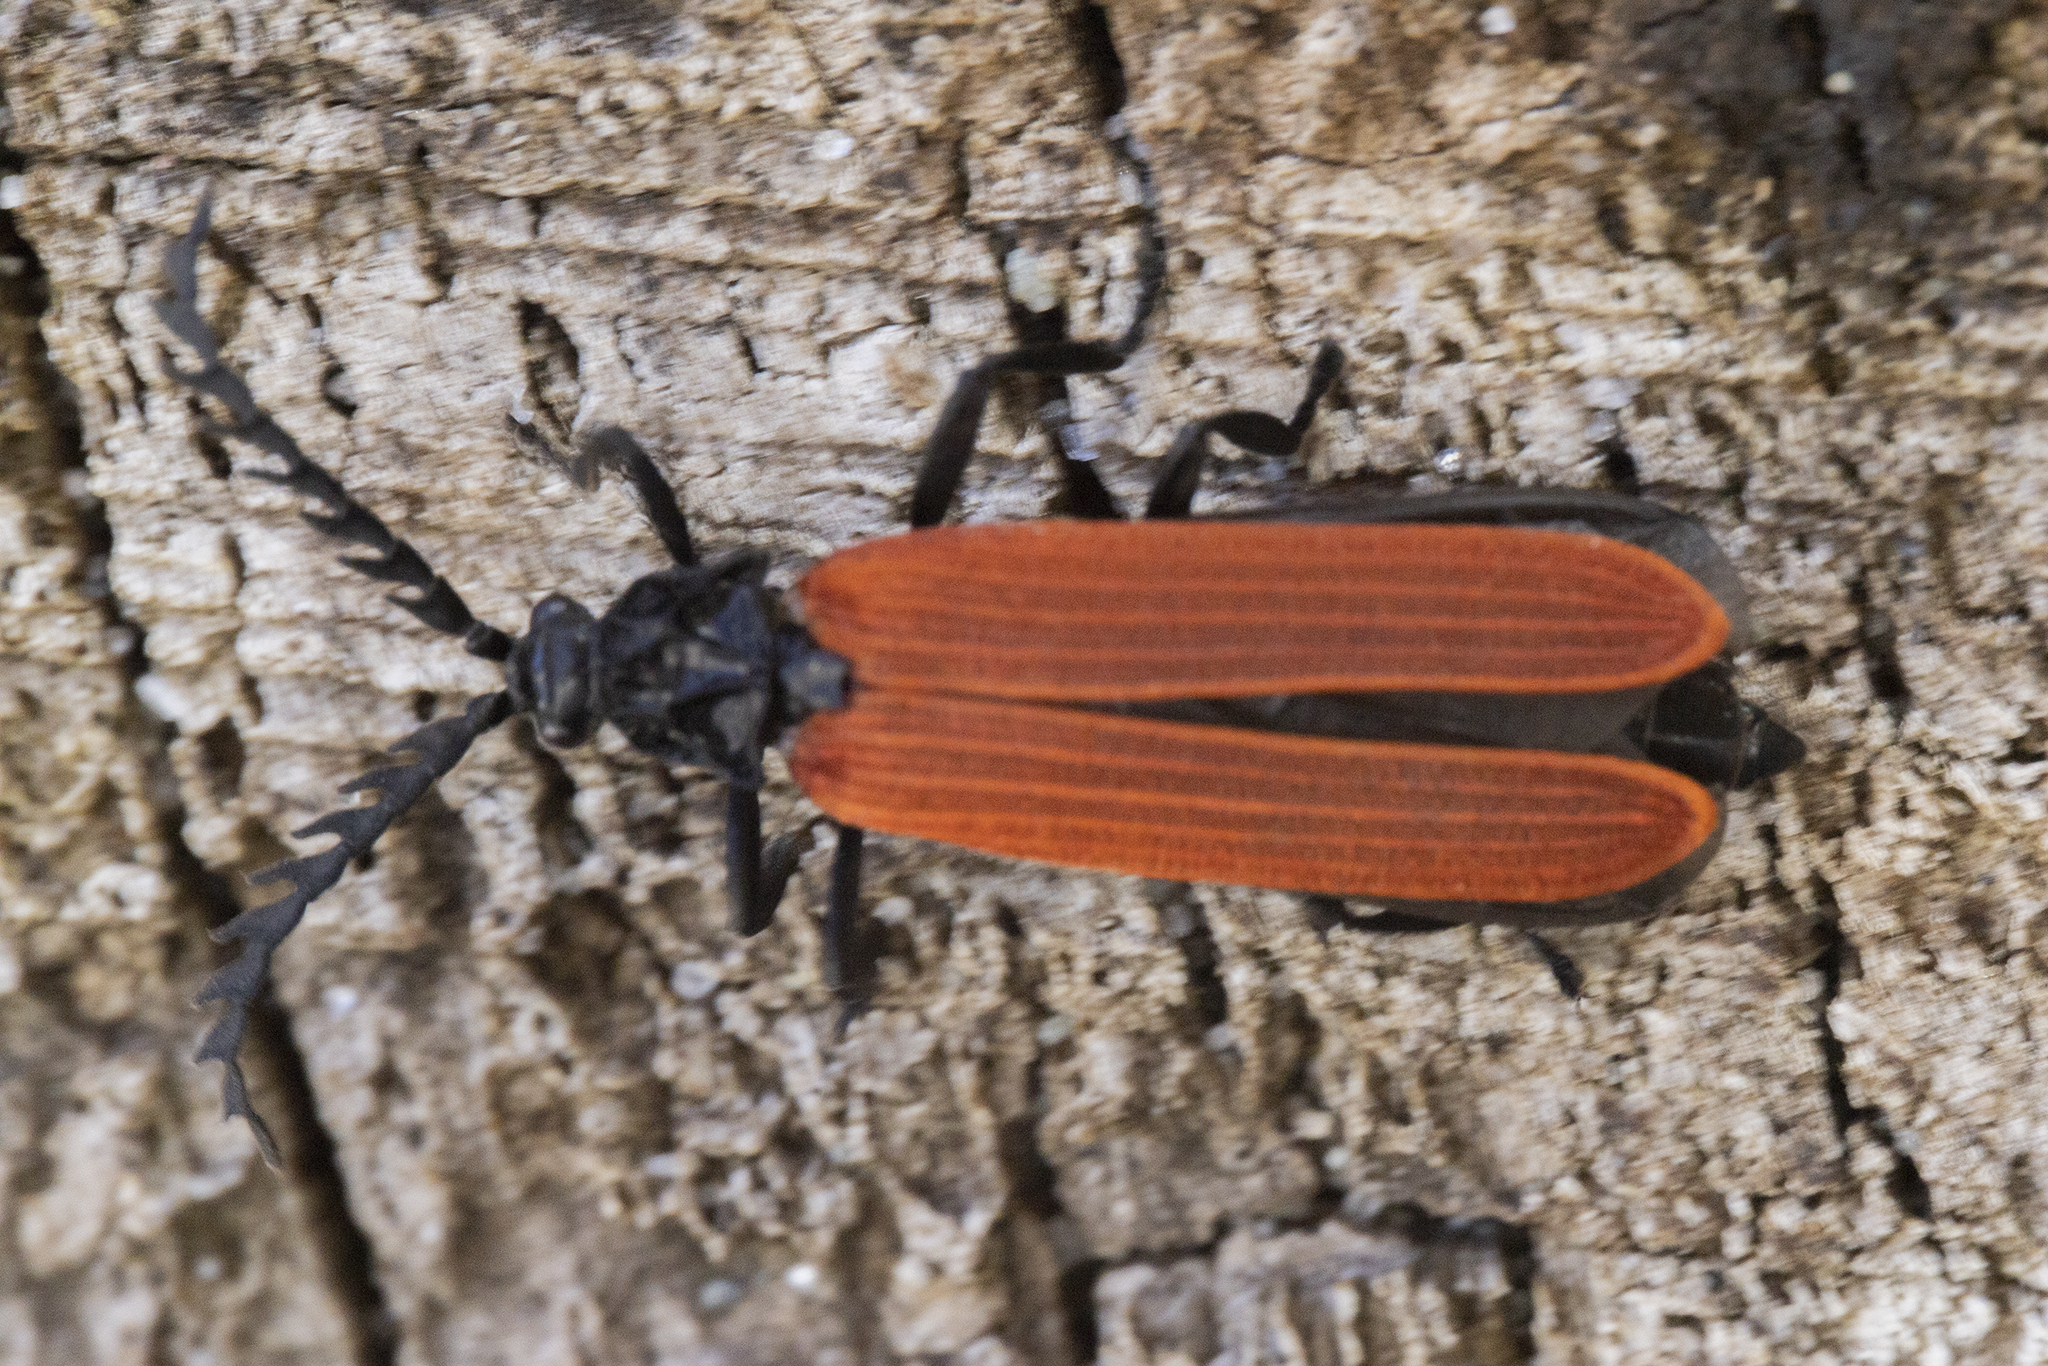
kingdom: Animalia
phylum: Arthropoda
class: Insecta
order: Coleoptera
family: Lycidae
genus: Porrostoma
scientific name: Porrostoma rufipenne
